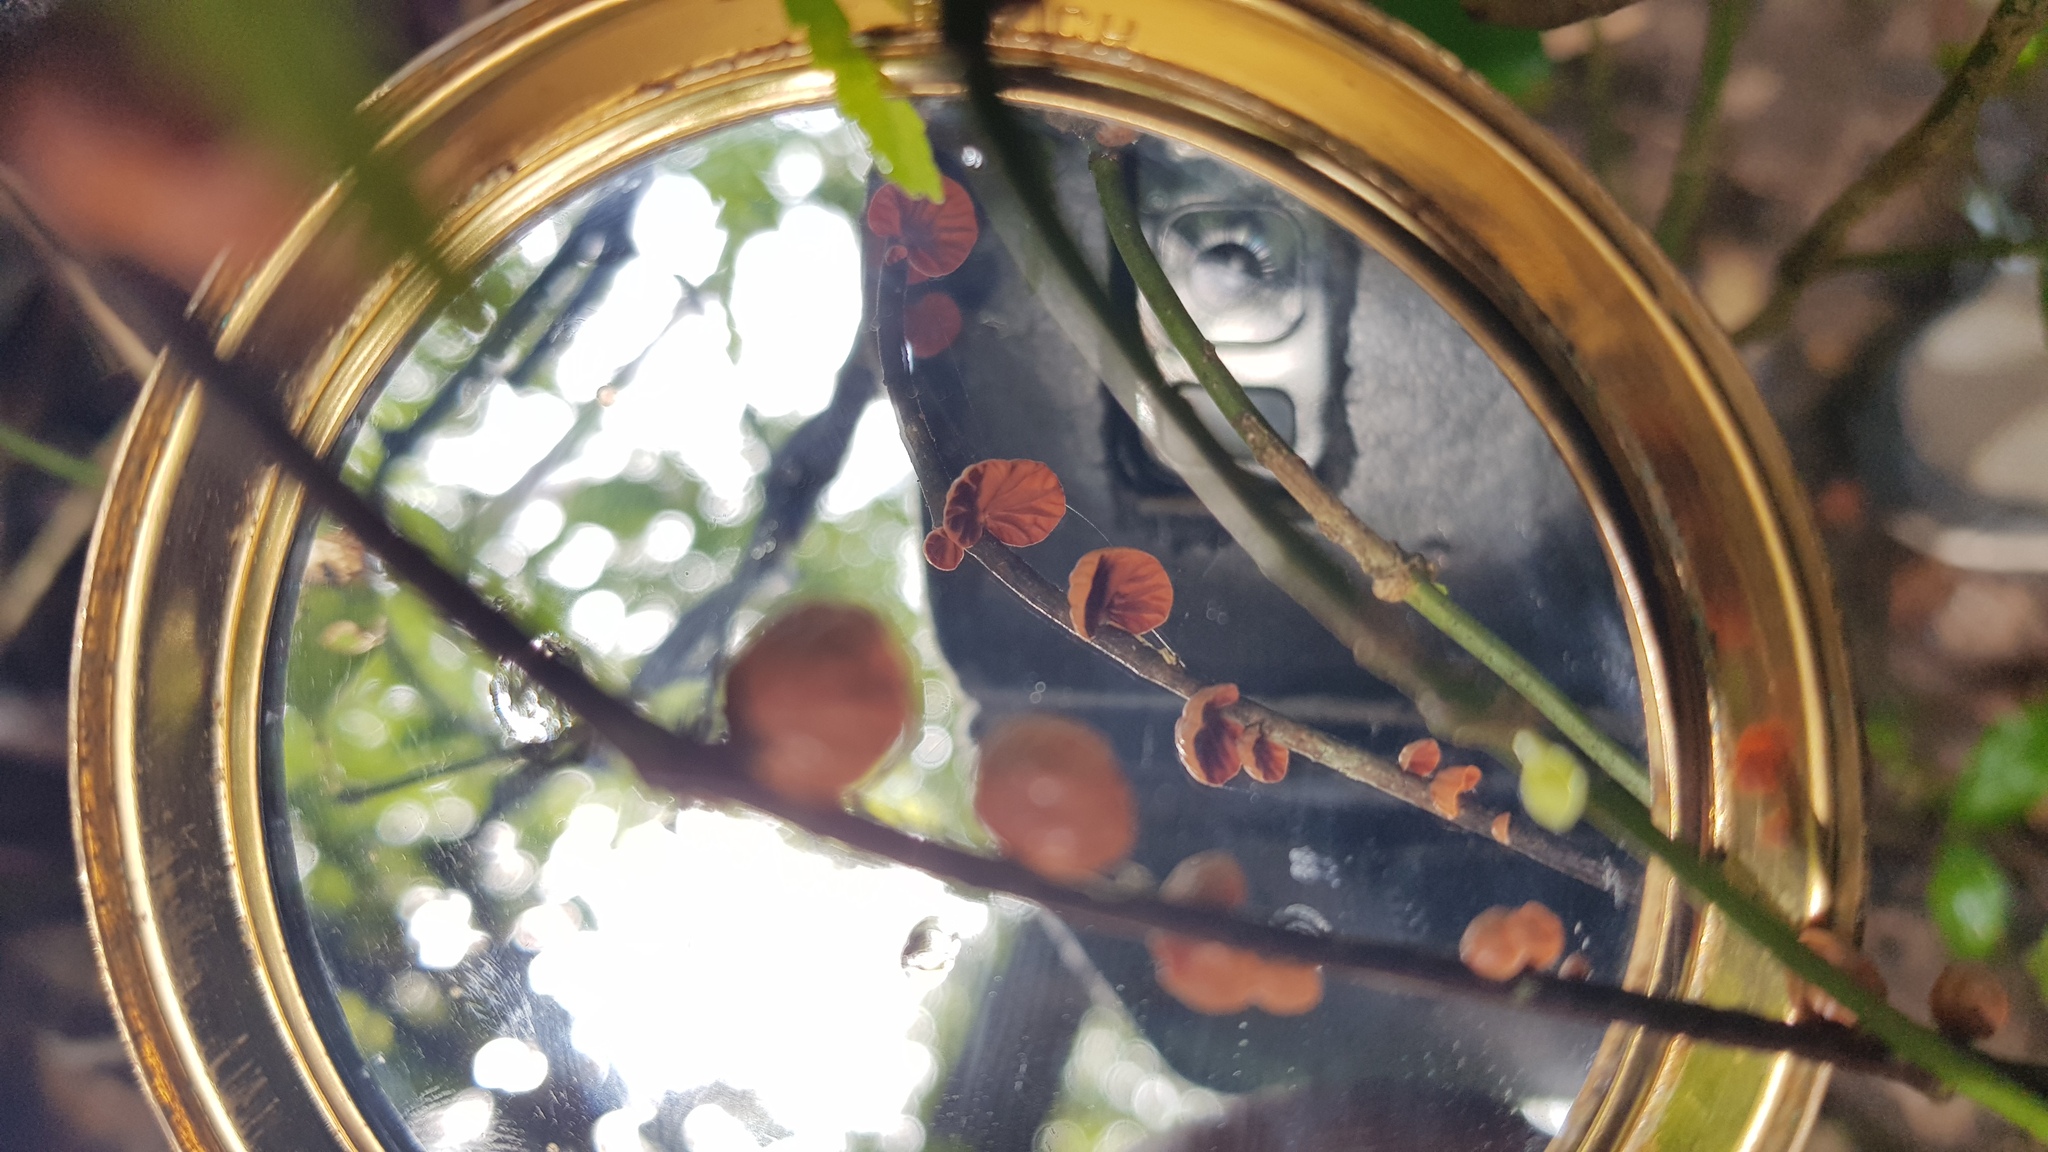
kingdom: Fungi
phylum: Basidiomycota
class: Agaricomycetes
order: Agaricales
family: Omphalotaceae
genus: Anthracophyllum
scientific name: Anthracophyllum archeri
